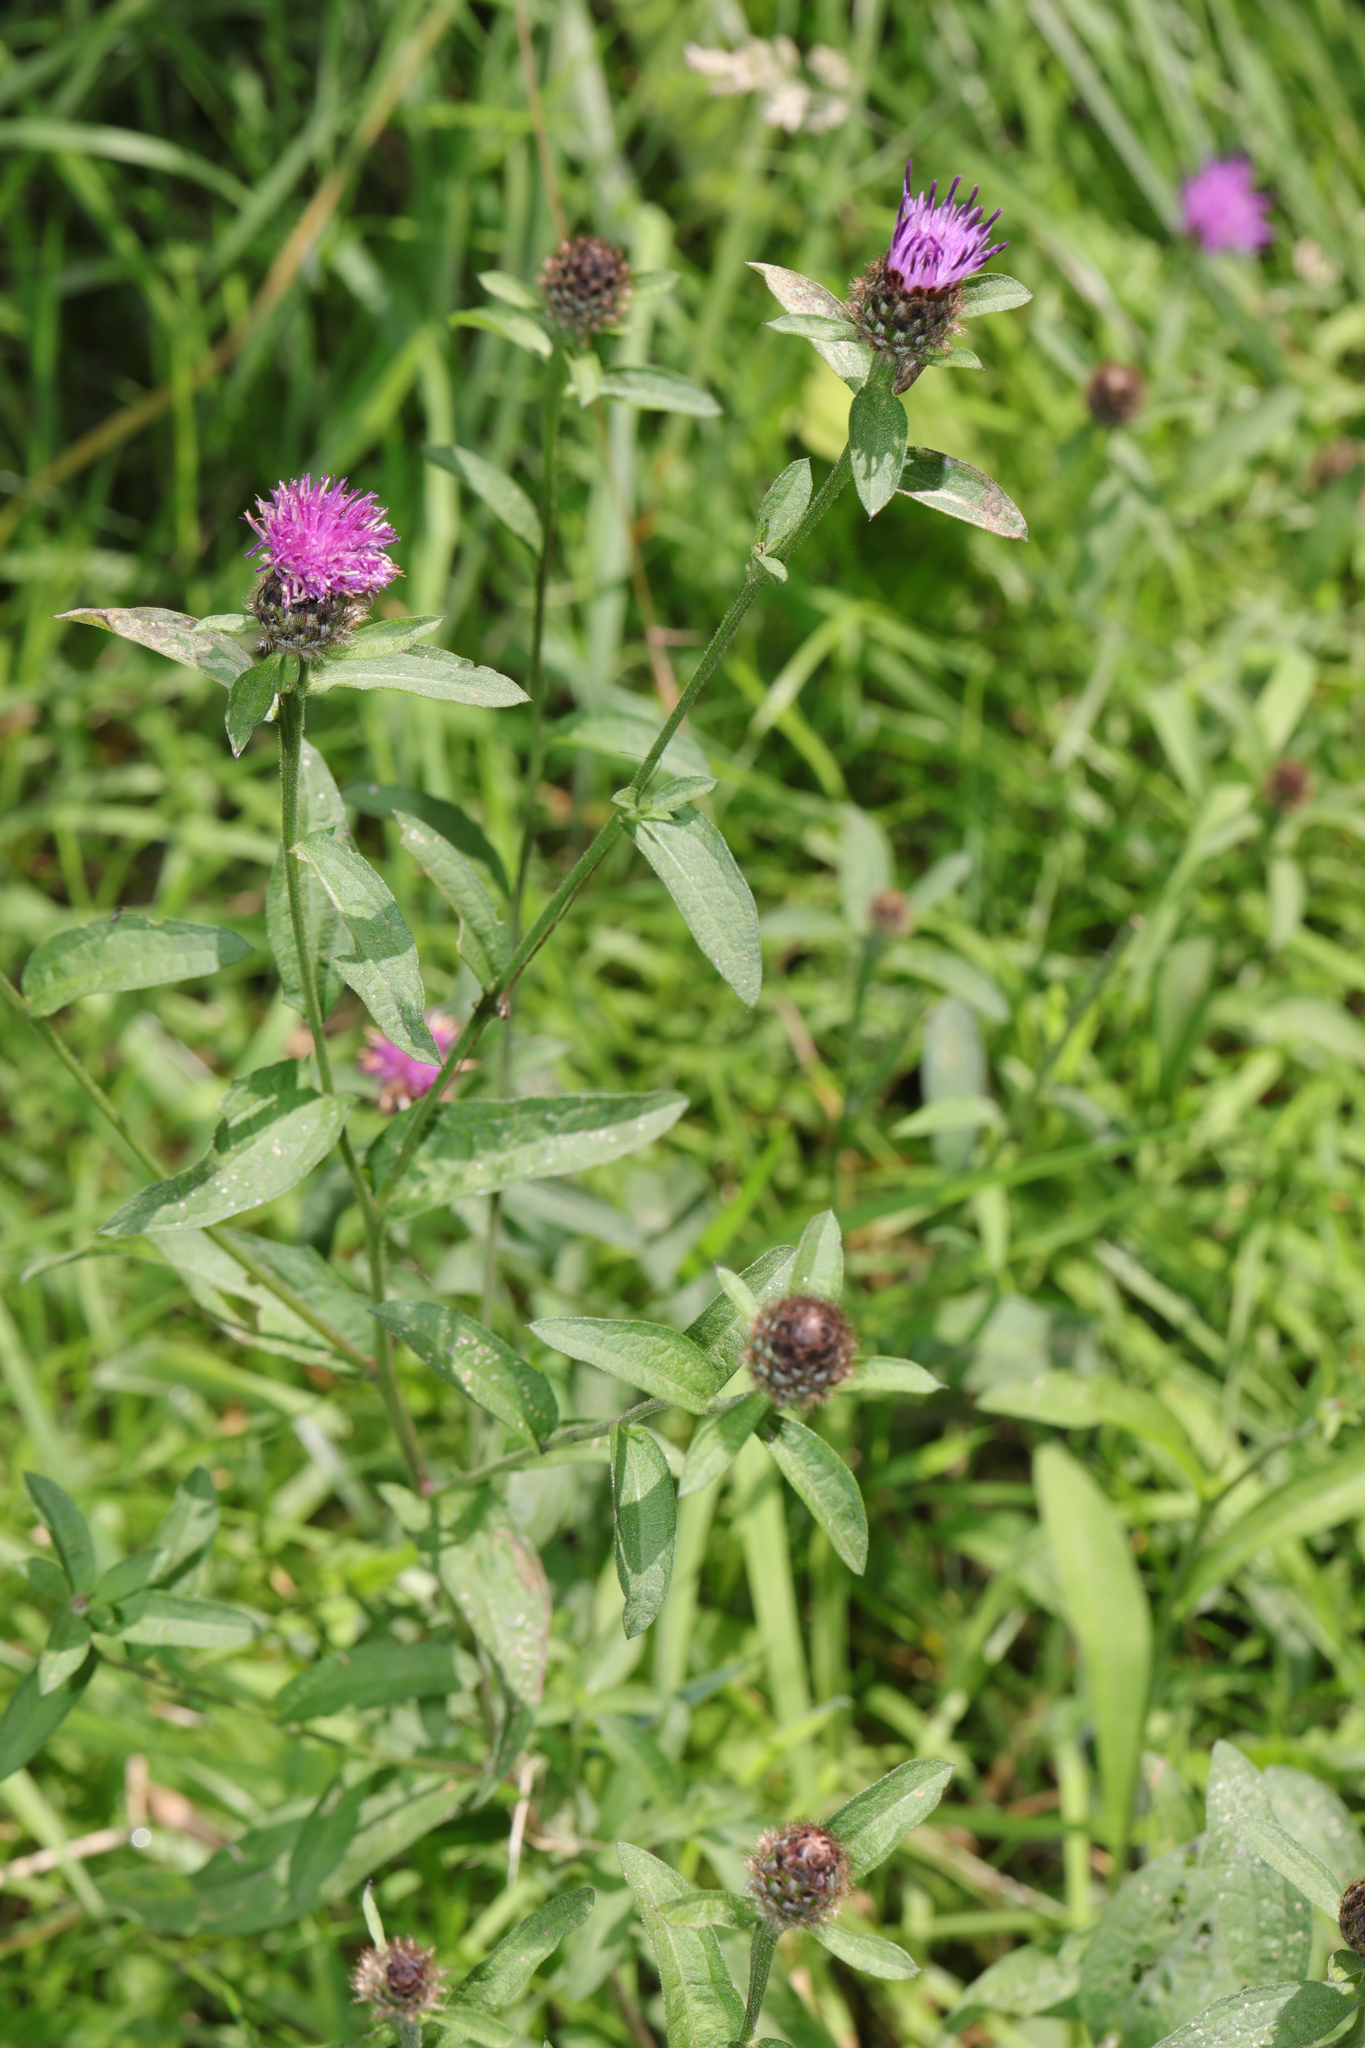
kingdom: Plantae
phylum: Tracheophyta
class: Magnoliopsida
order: Asterales
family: Asteraceae
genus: Centaurea
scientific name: Centaurea nigra
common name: Lesser knapweed
